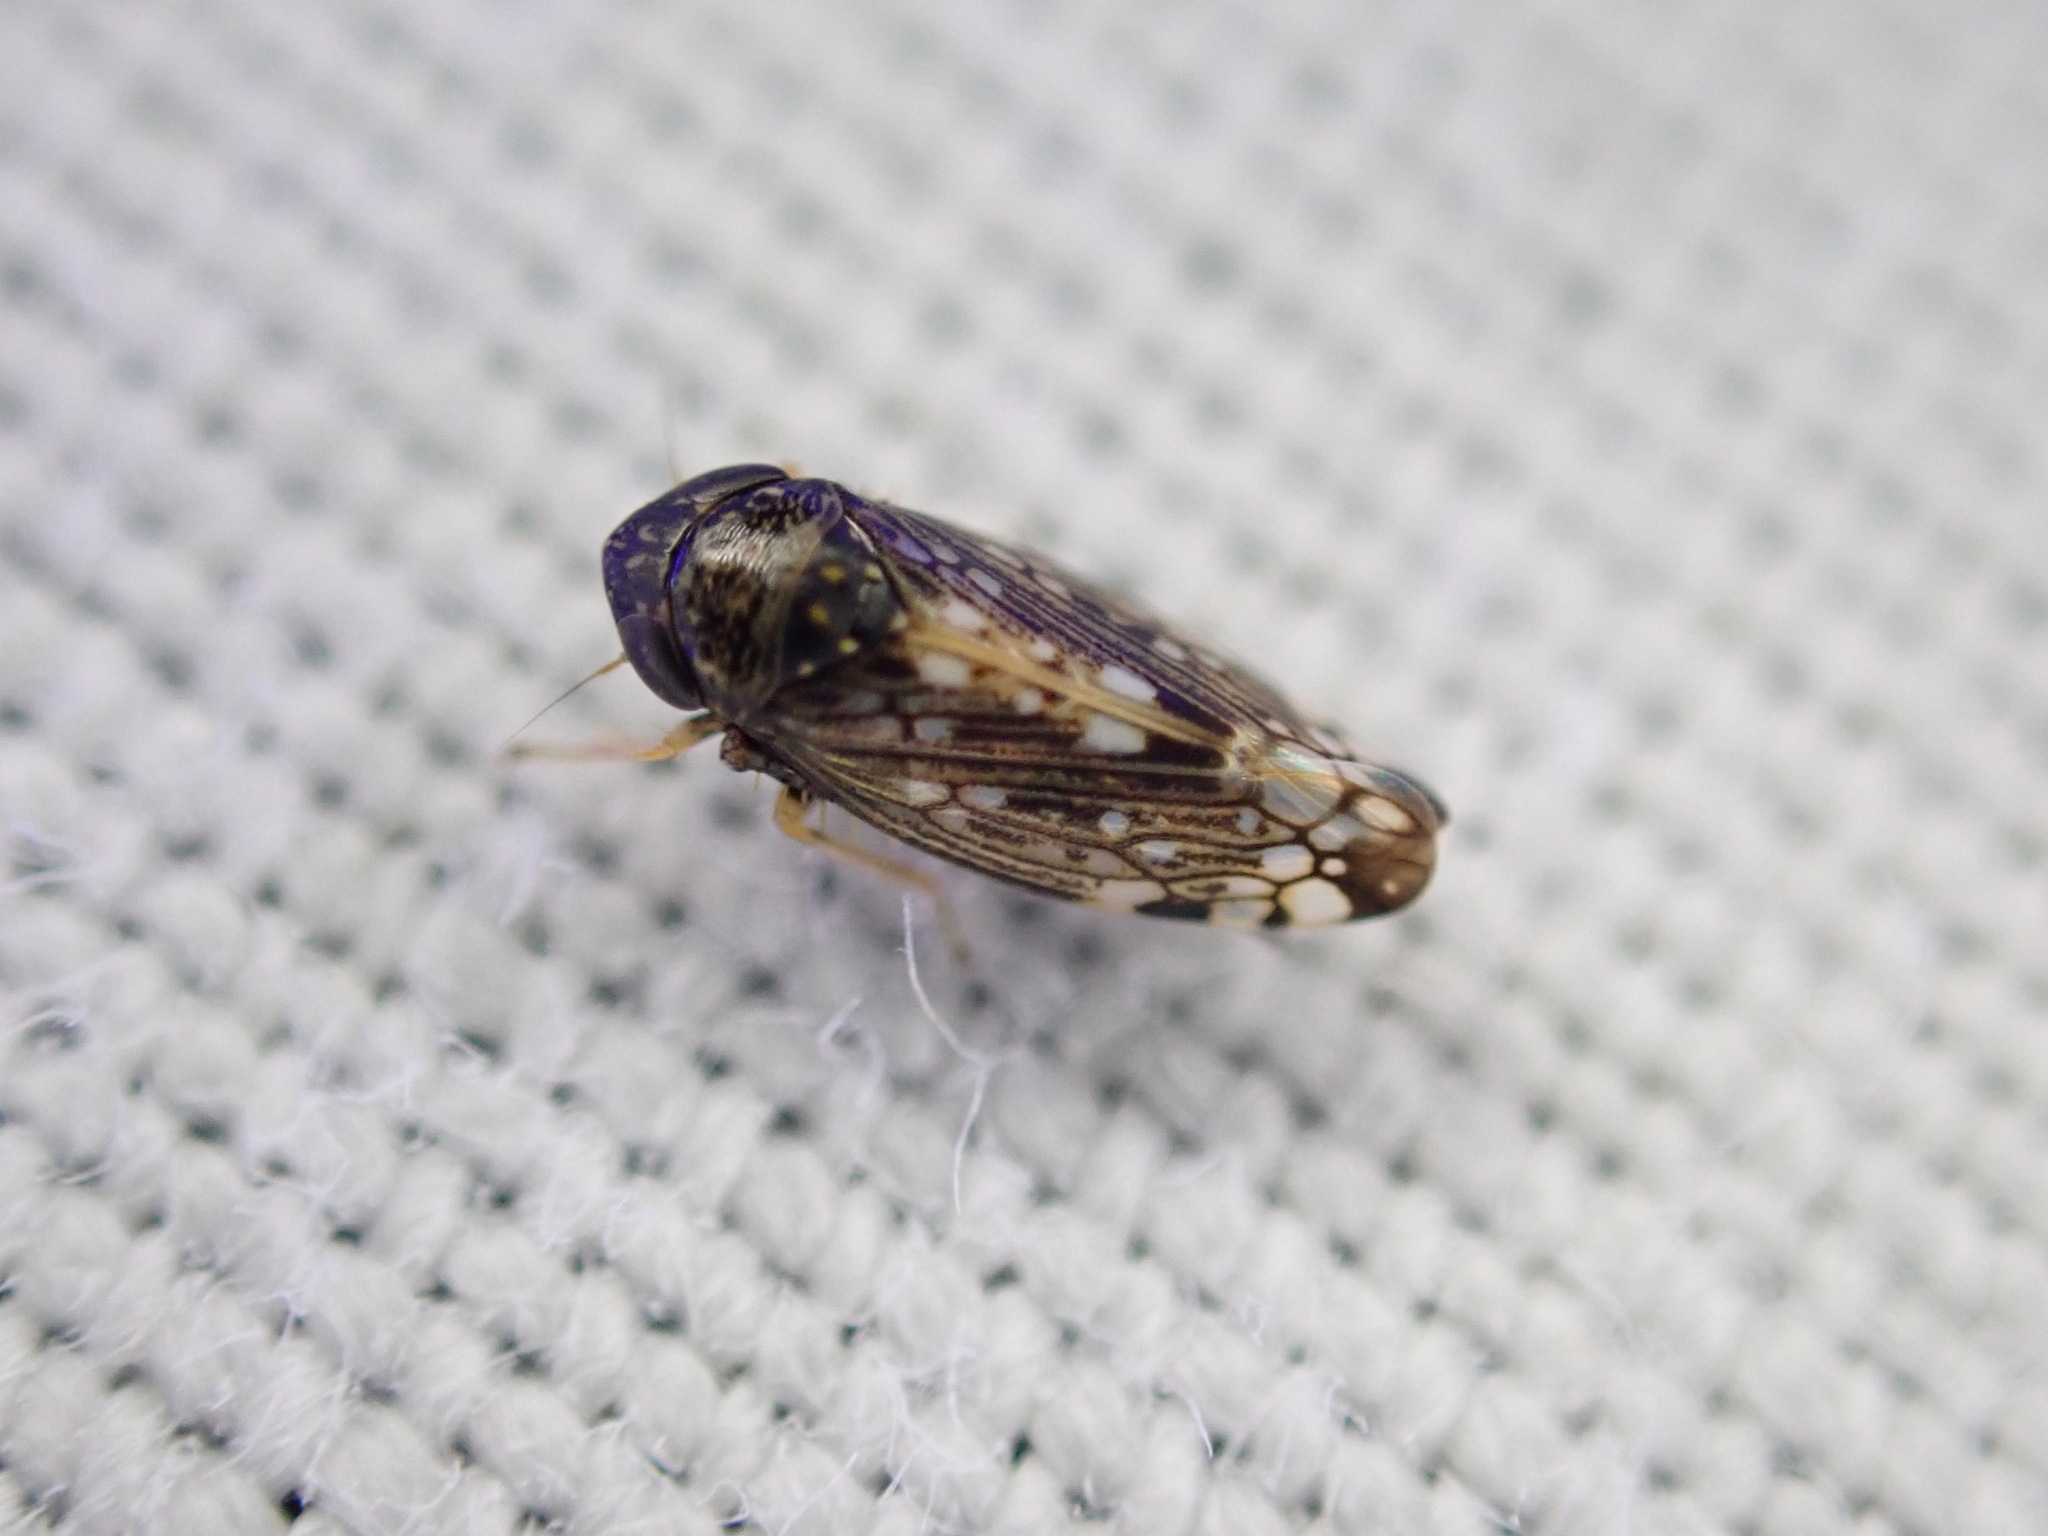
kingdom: Animalia
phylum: Arthropoda
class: Insecta
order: Hemiptera
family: Cicadellidae
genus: Neoaliturus
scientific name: Neoaliturus fenestratus
